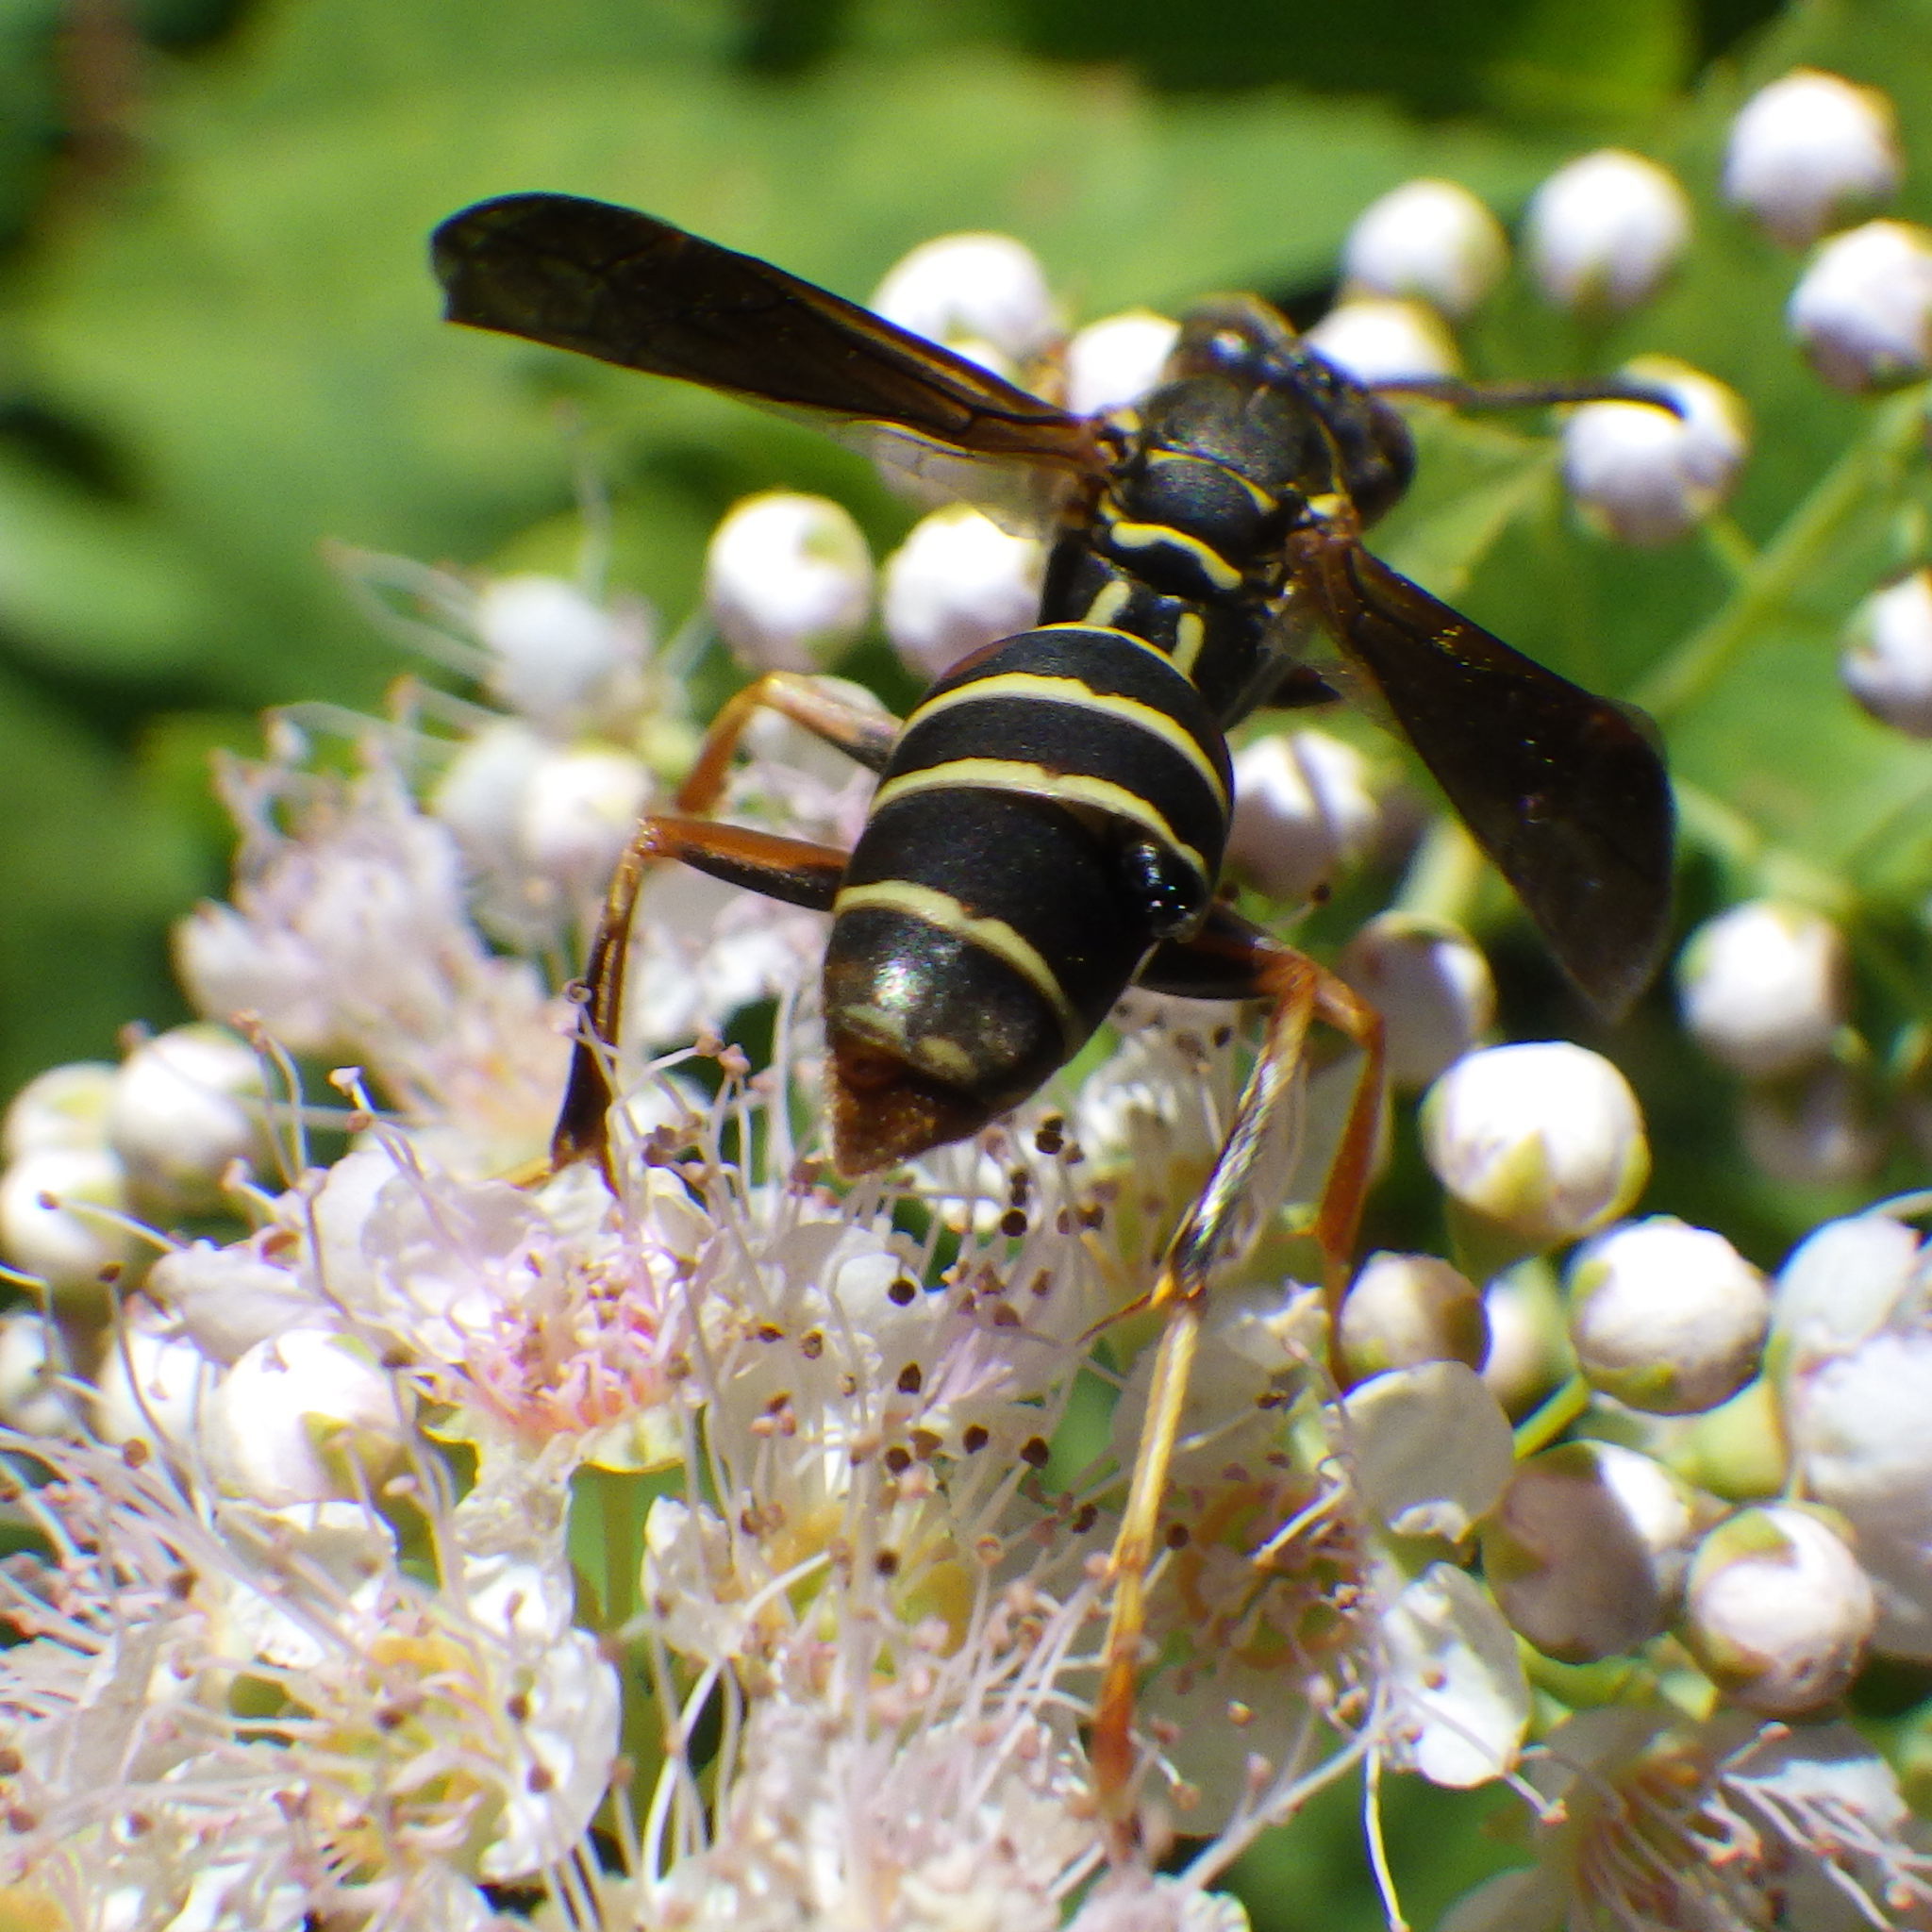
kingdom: Animalia
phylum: Arthropoda
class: Insecta
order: Strepsiptera
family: Xenidae
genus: Xenos
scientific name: Xenos pecki
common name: Twisted wing parasite
